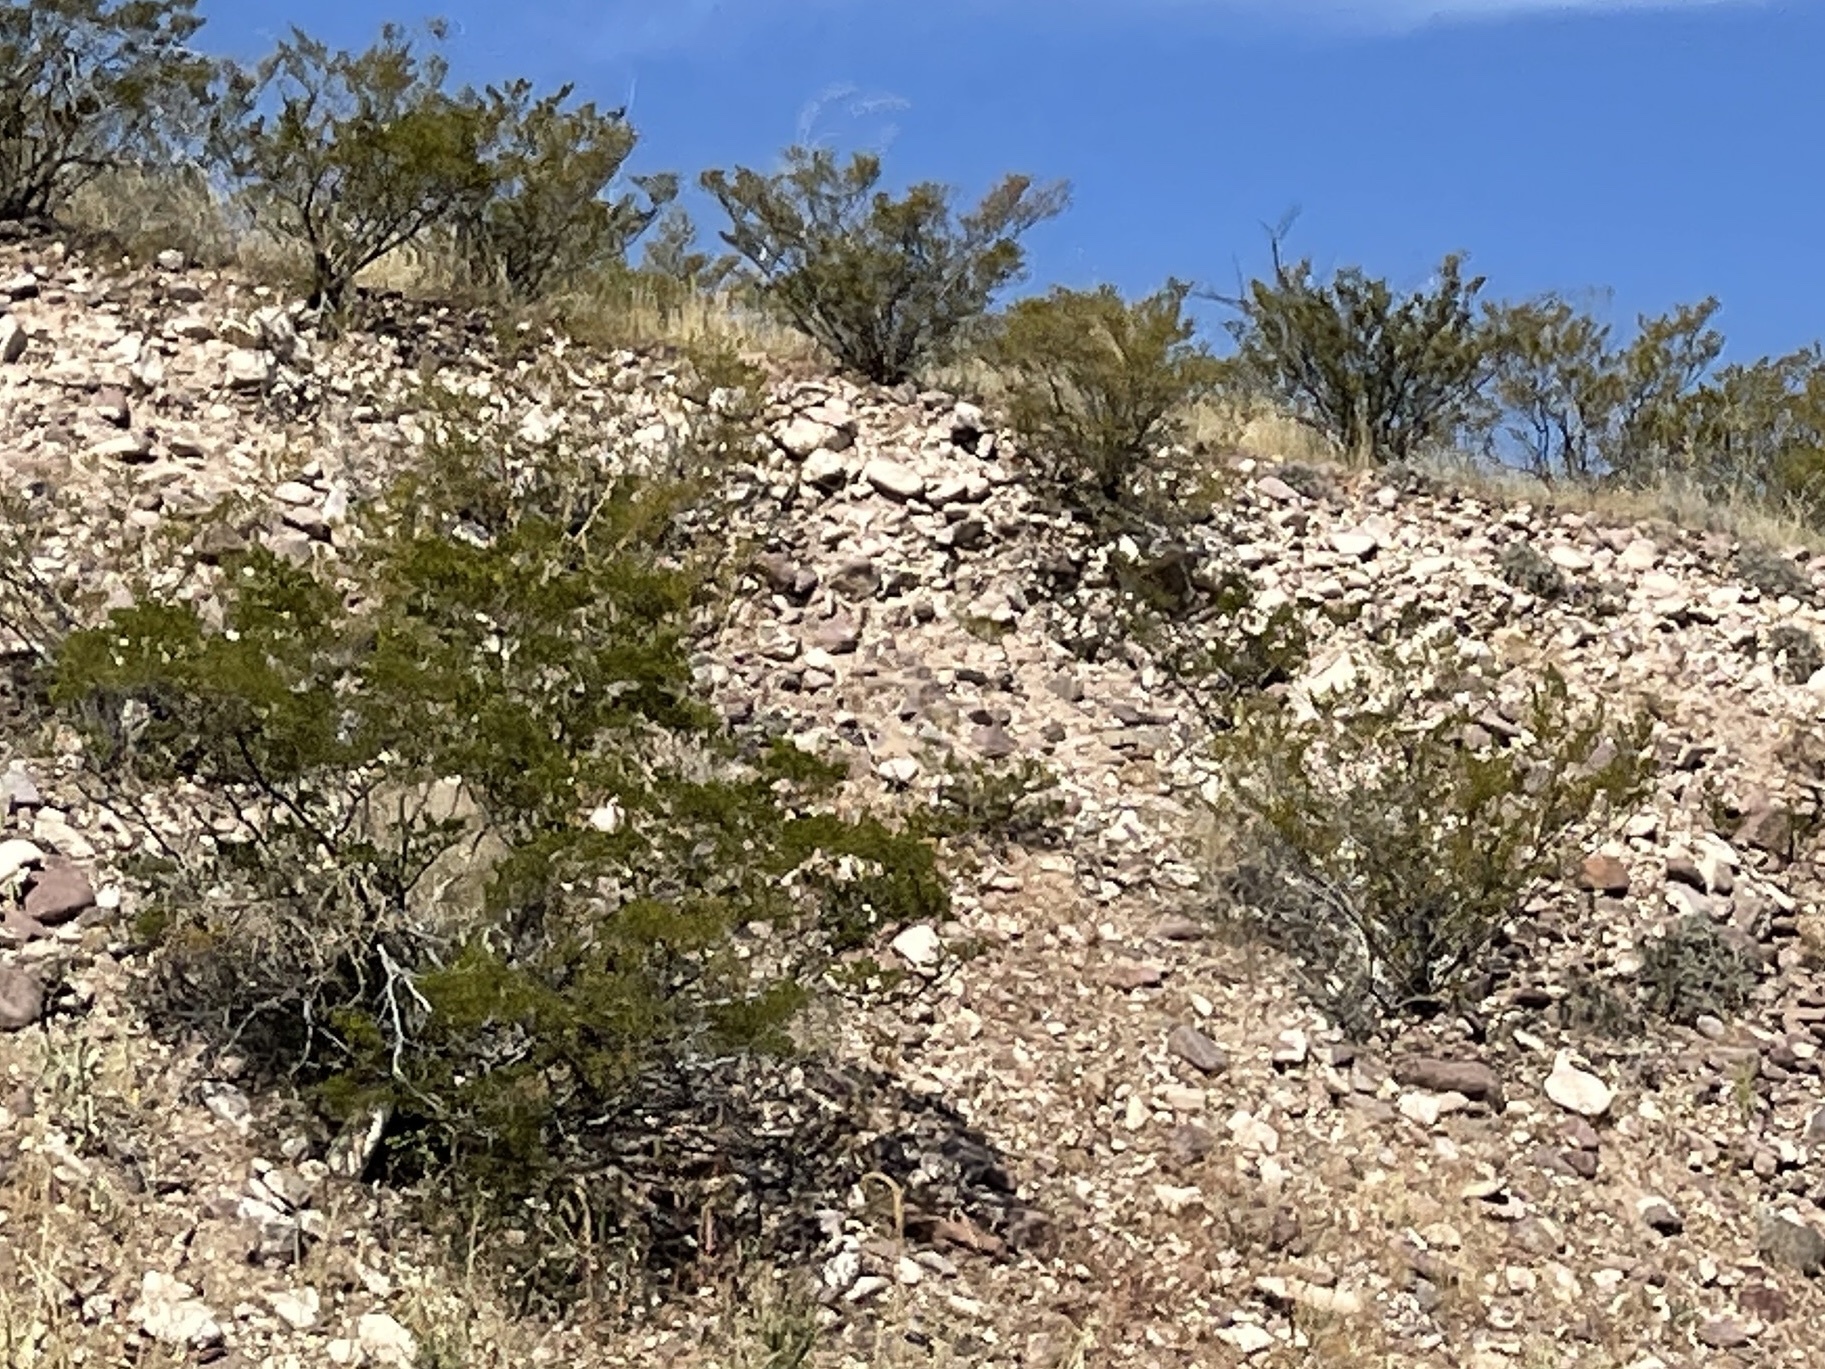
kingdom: Plantae
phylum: Tracheophyta
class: Magnoliopsida
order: Zygophyllales
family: Zygophyllaceae
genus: Larrea
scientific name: Larrea tridentata
